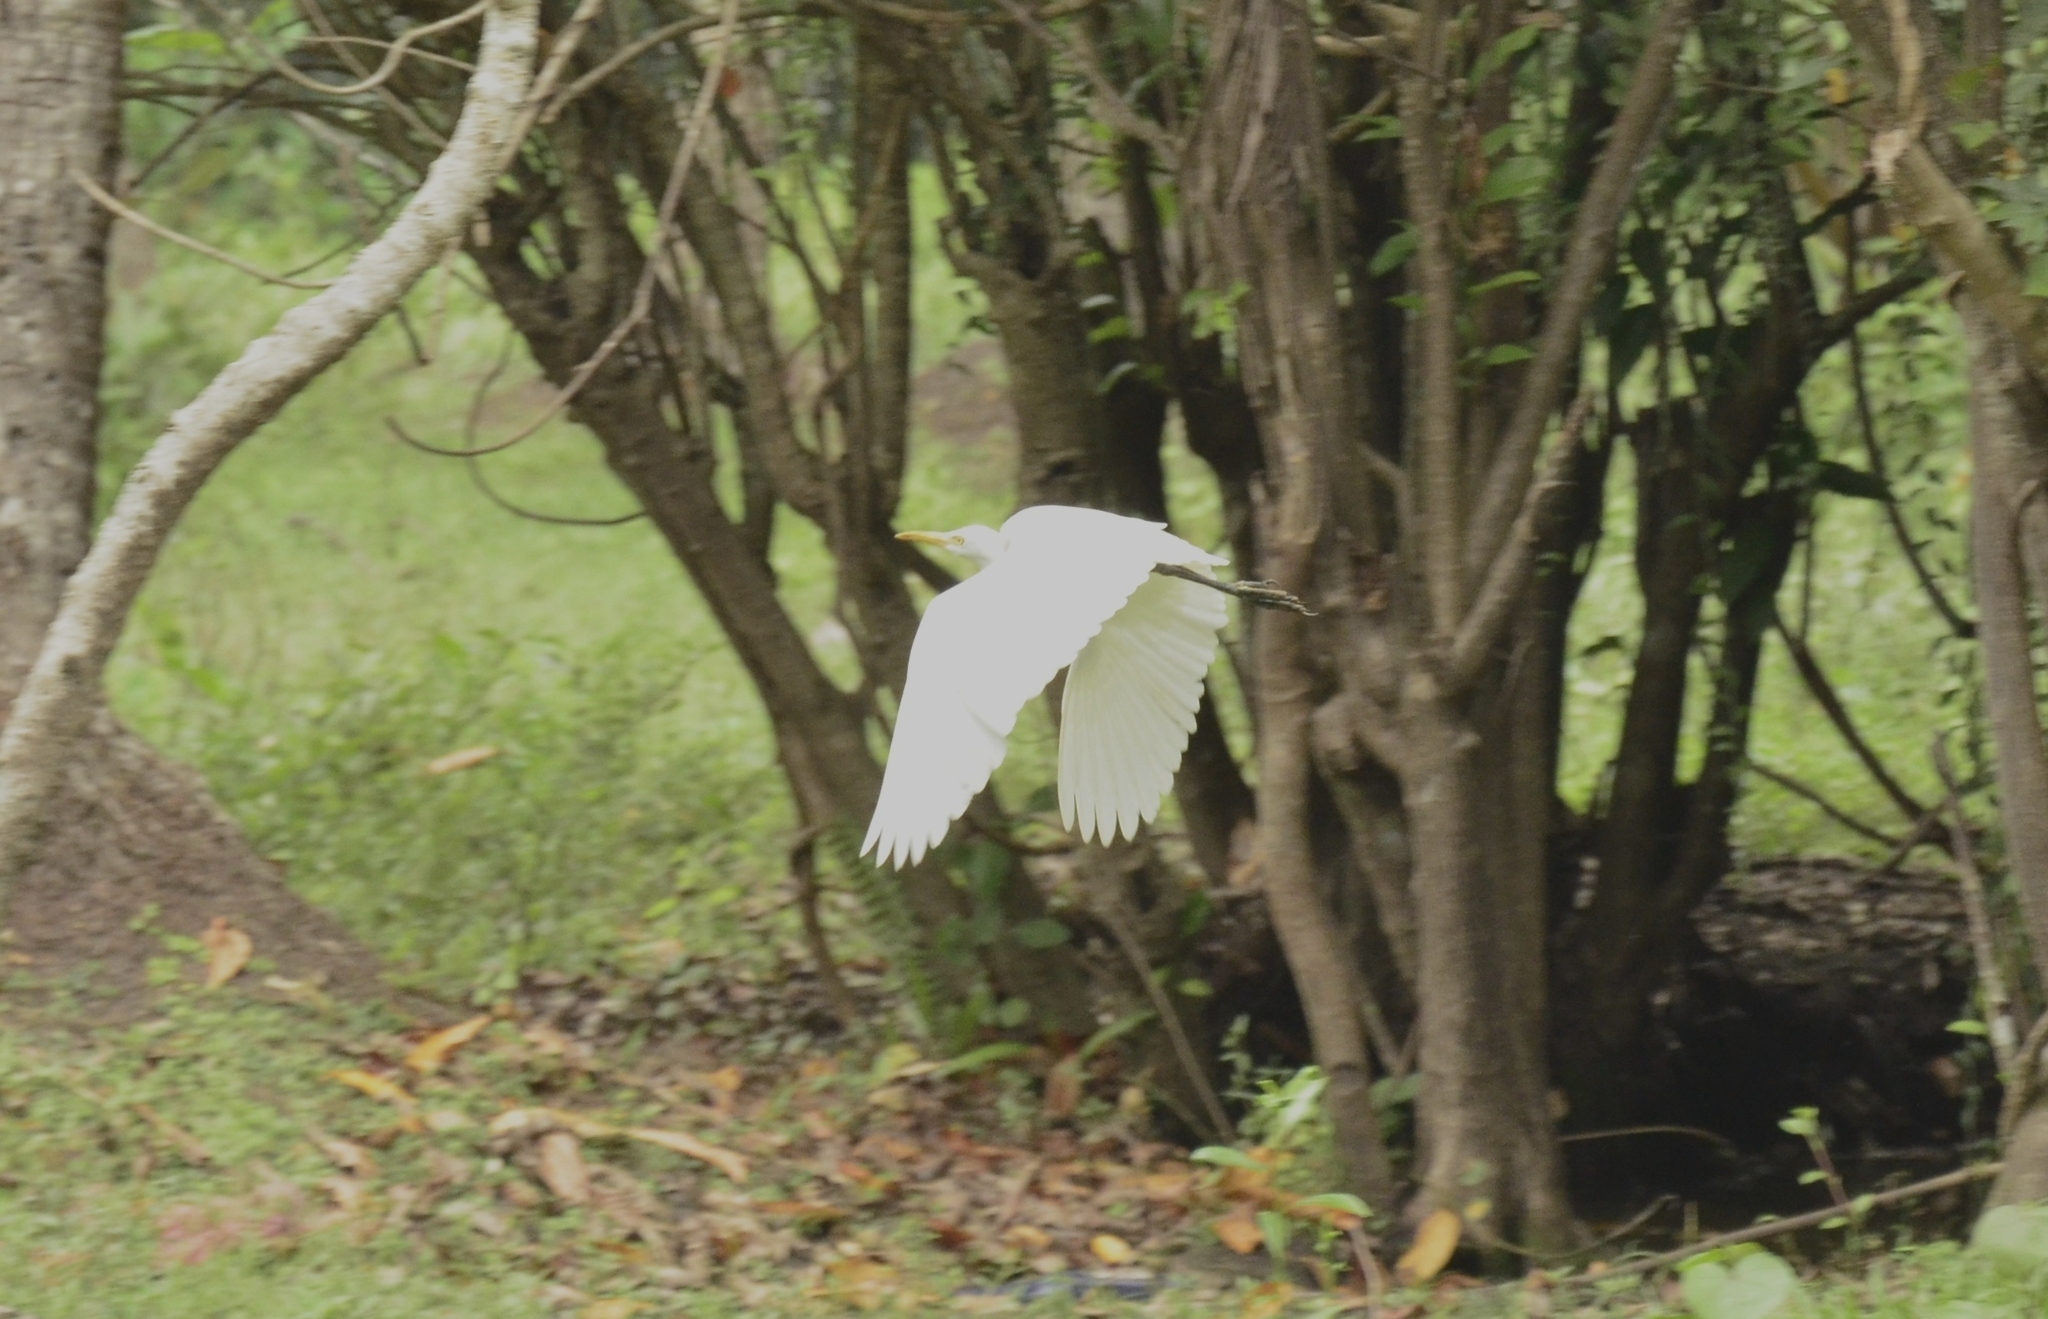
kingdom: Animalia
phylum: Chordata
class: Aves
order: Pelecaniformes
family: Ardeidae
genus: Bubulcus
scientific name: Bubulcus coromandus
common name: Eastern cattle egret
